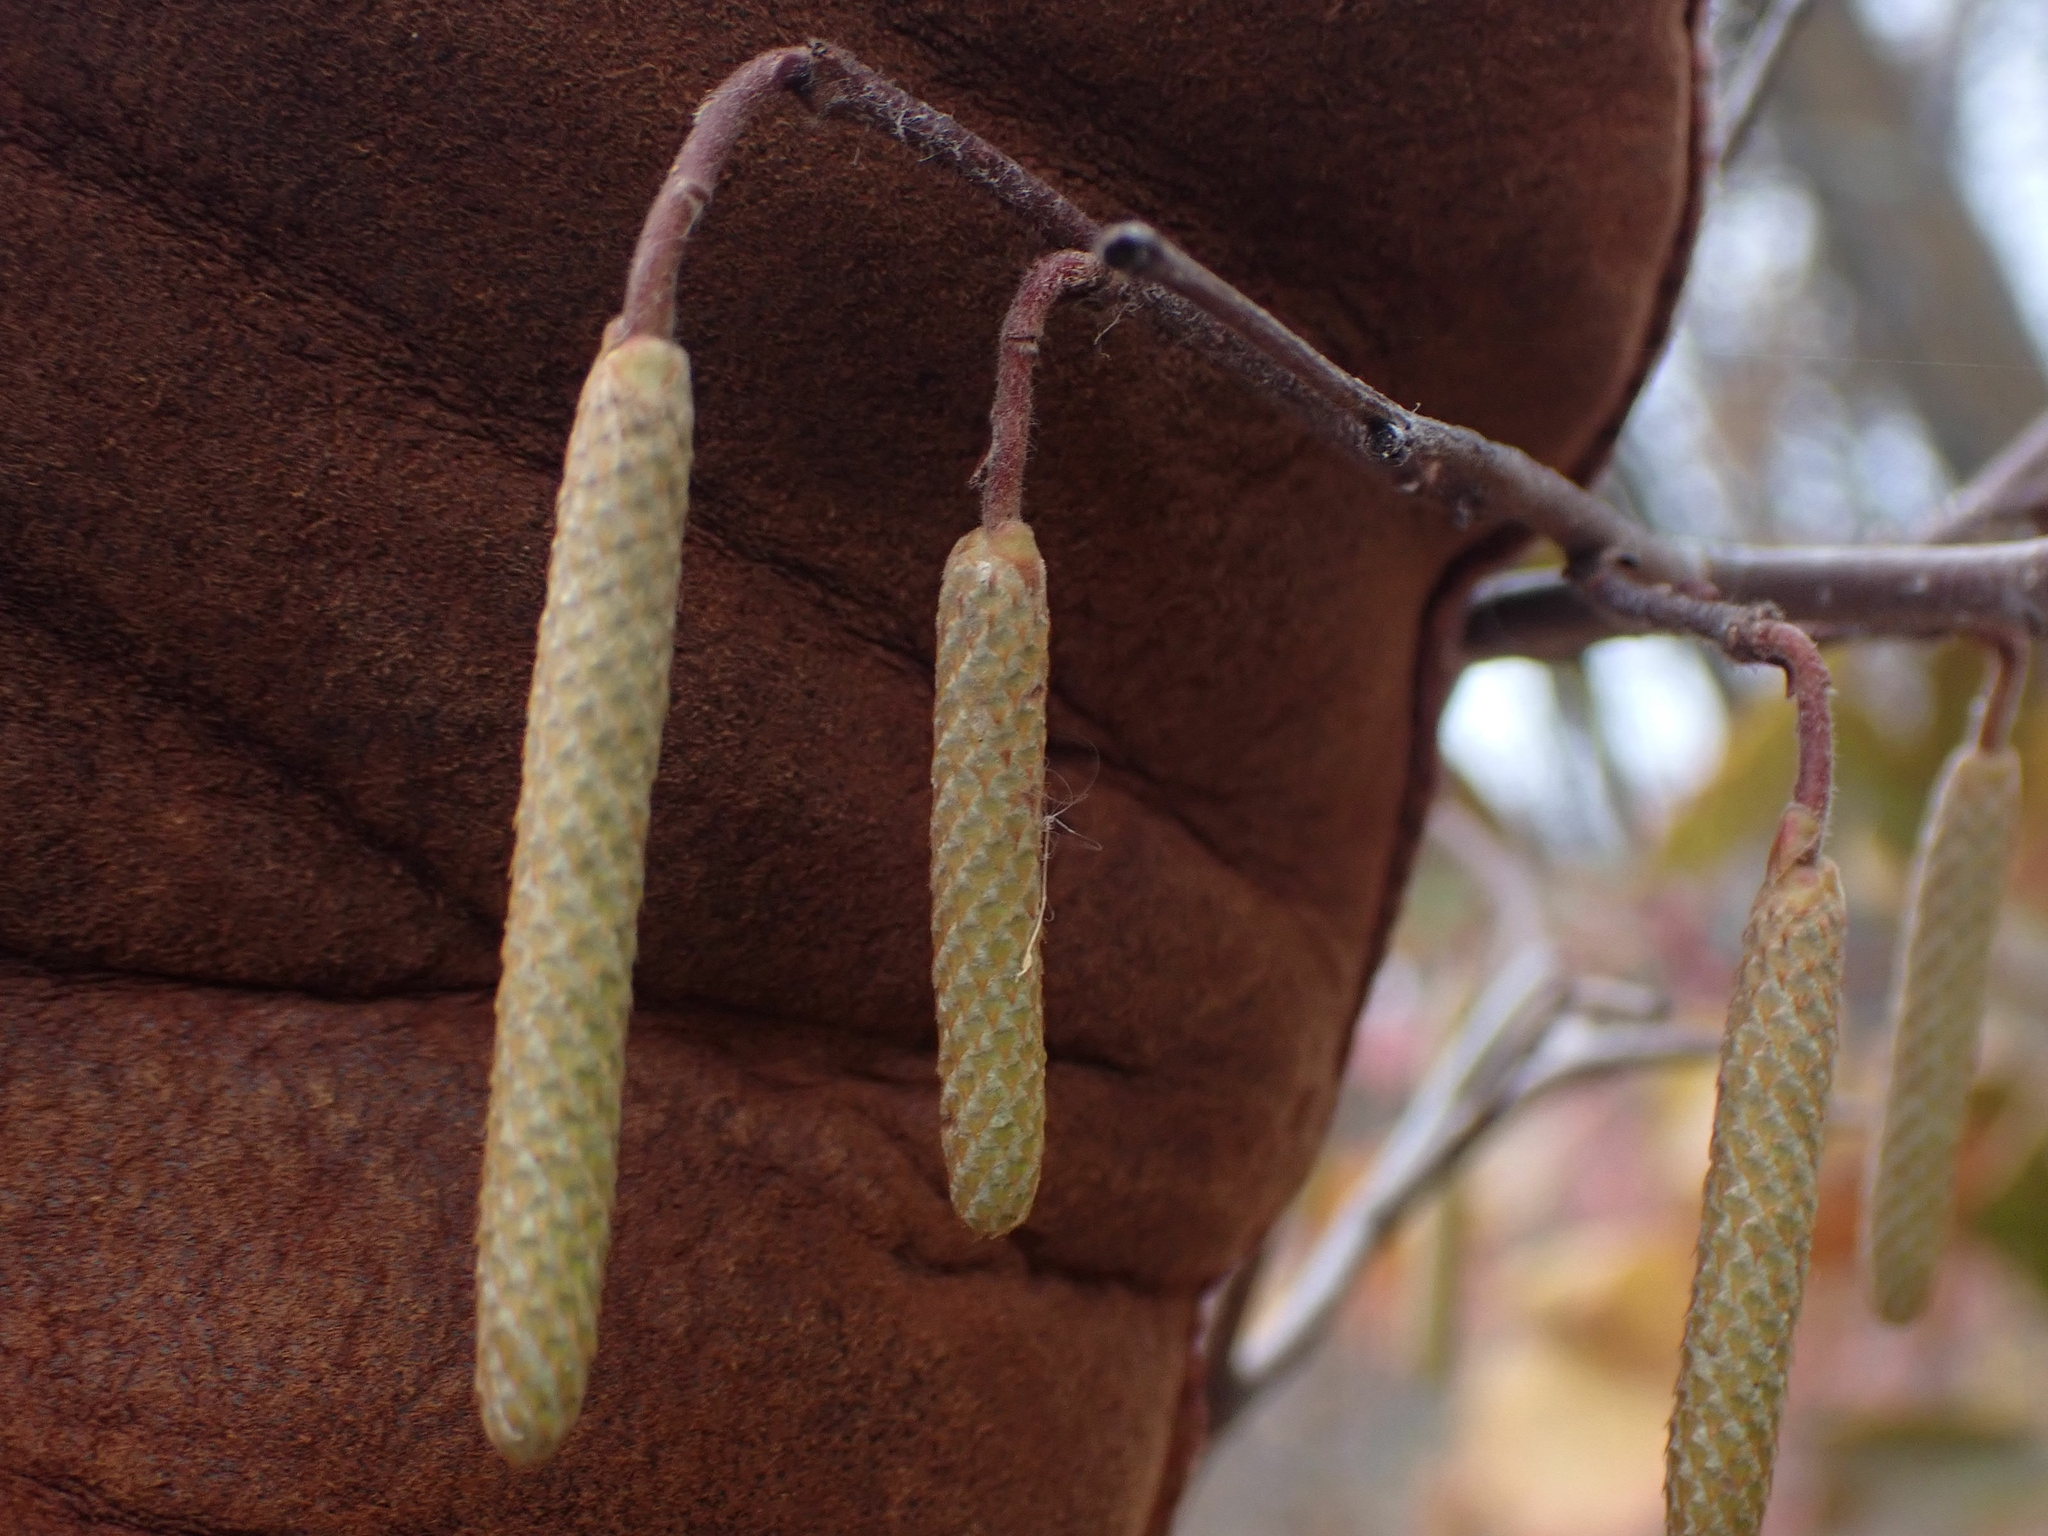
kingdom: Plantae
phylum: Tracheophyta
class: Magnoliopsida
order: Fagales
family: Betulaceae
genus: Corylus
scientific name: Corylus americana
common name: American hazel
